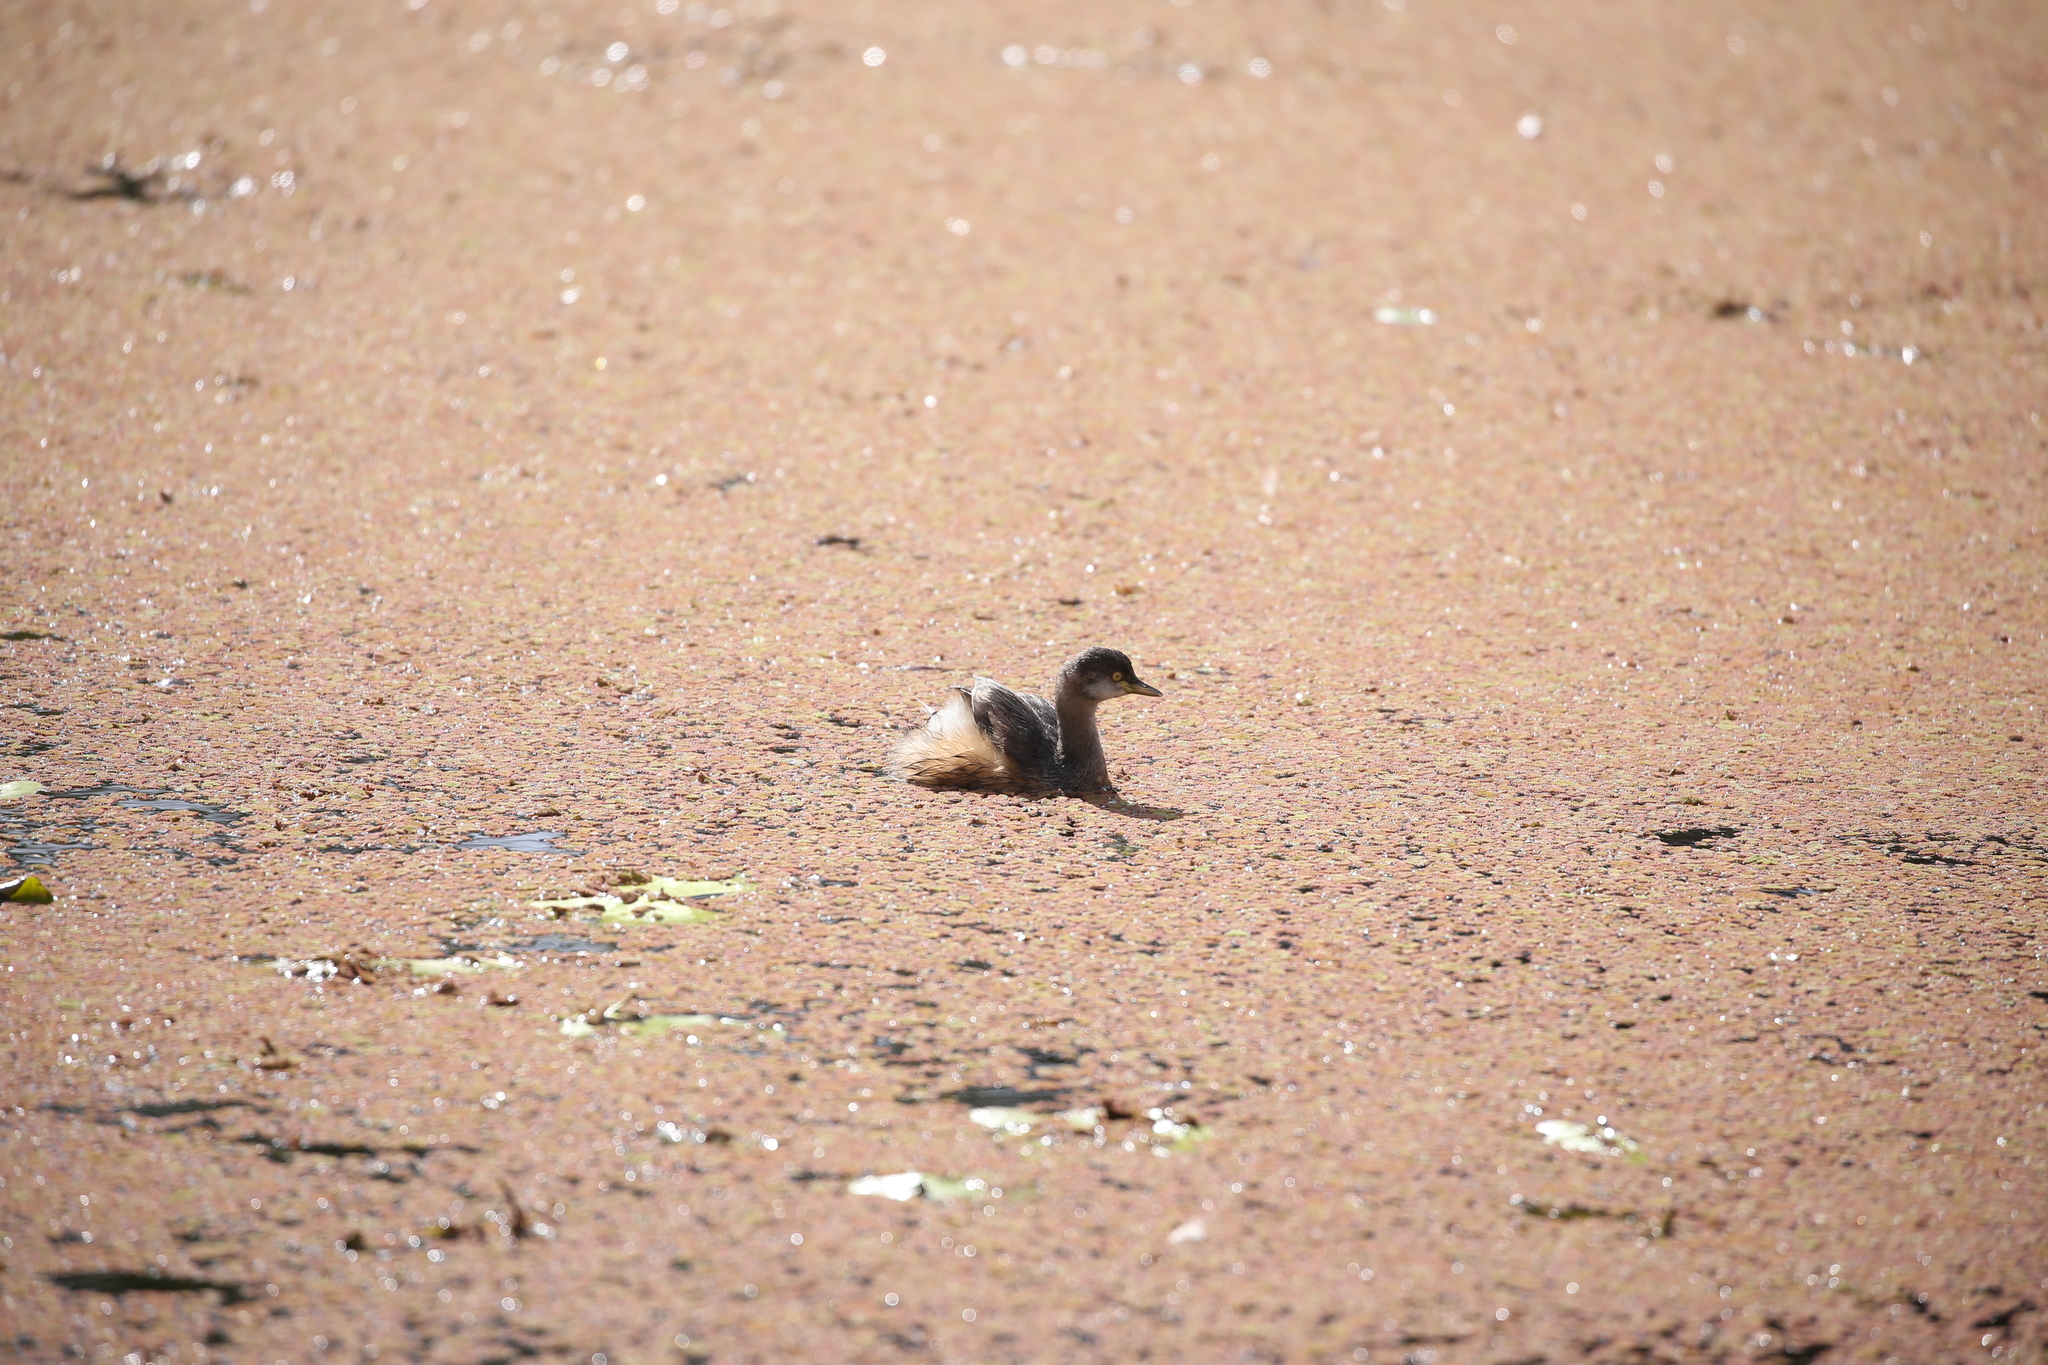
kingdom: Animalia
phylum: Chordata
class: Aves
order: Podicipediformes
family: Podicipedidae
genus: Tachybaptus
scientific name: Tachybaptus novaehollandiae
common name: Australasian grebe
